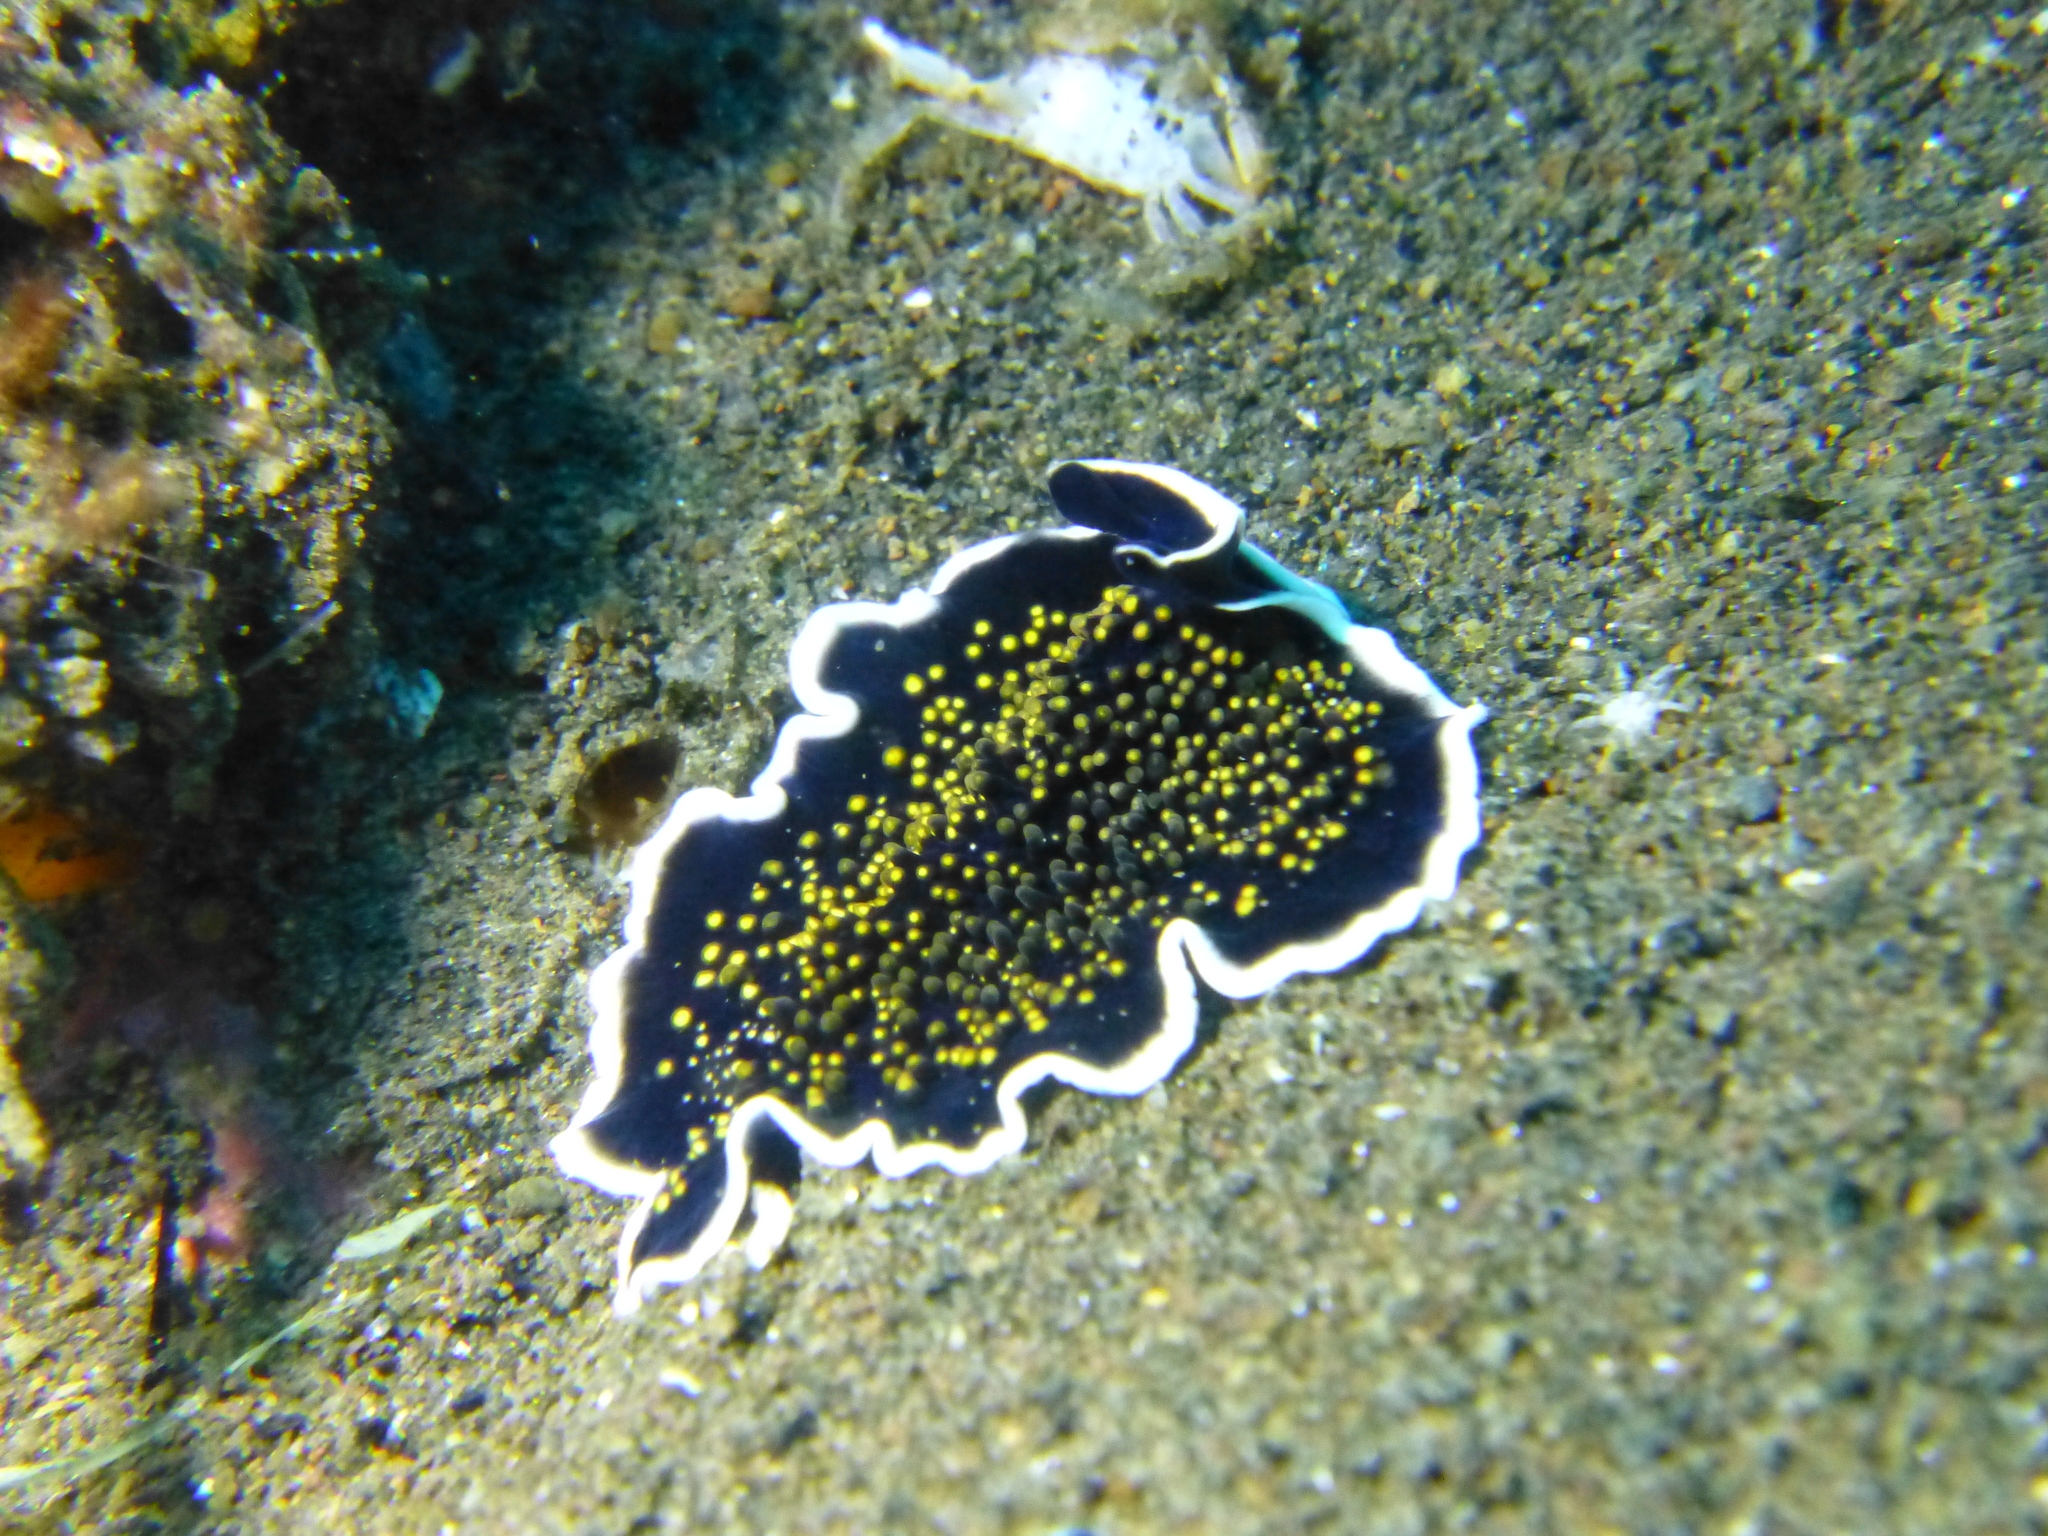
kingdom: Animalia
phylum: Platyhelminthes
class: Turbellaria
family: Pseudocerotidae
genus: Thysanozoon
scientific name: Thysanozoon nigropapillosum
